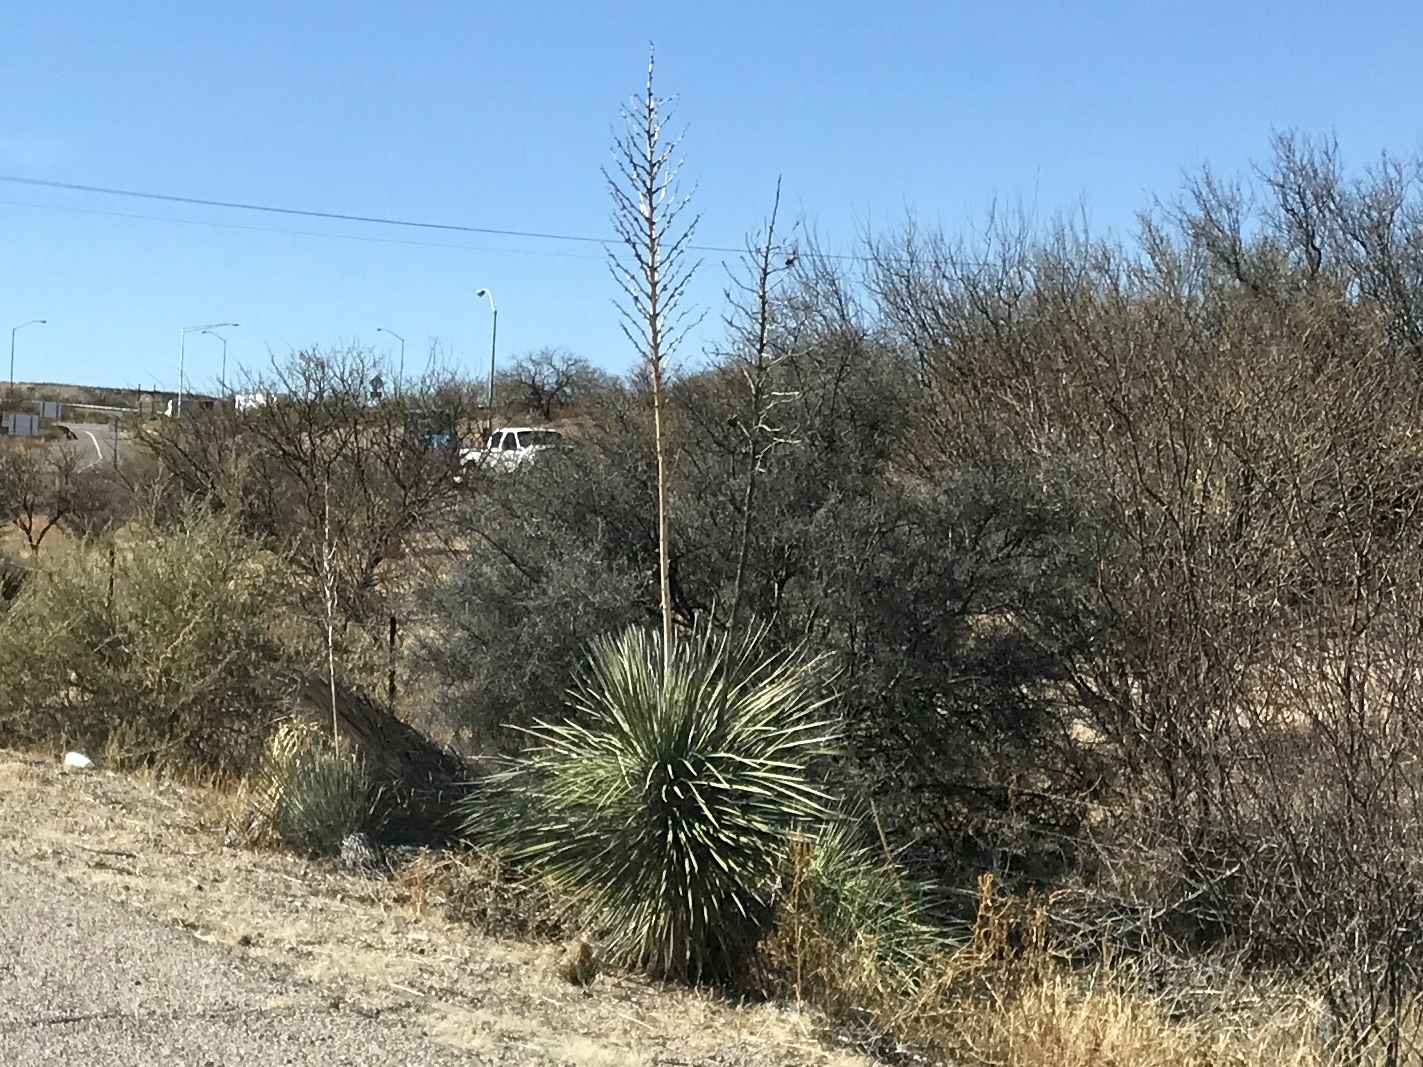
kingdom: Plantae
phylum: Tracheophyta
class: Liliopsida
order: Asparagales
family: Asparagaceae
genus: Yucca
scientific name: Yucca elata
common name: Palmella
